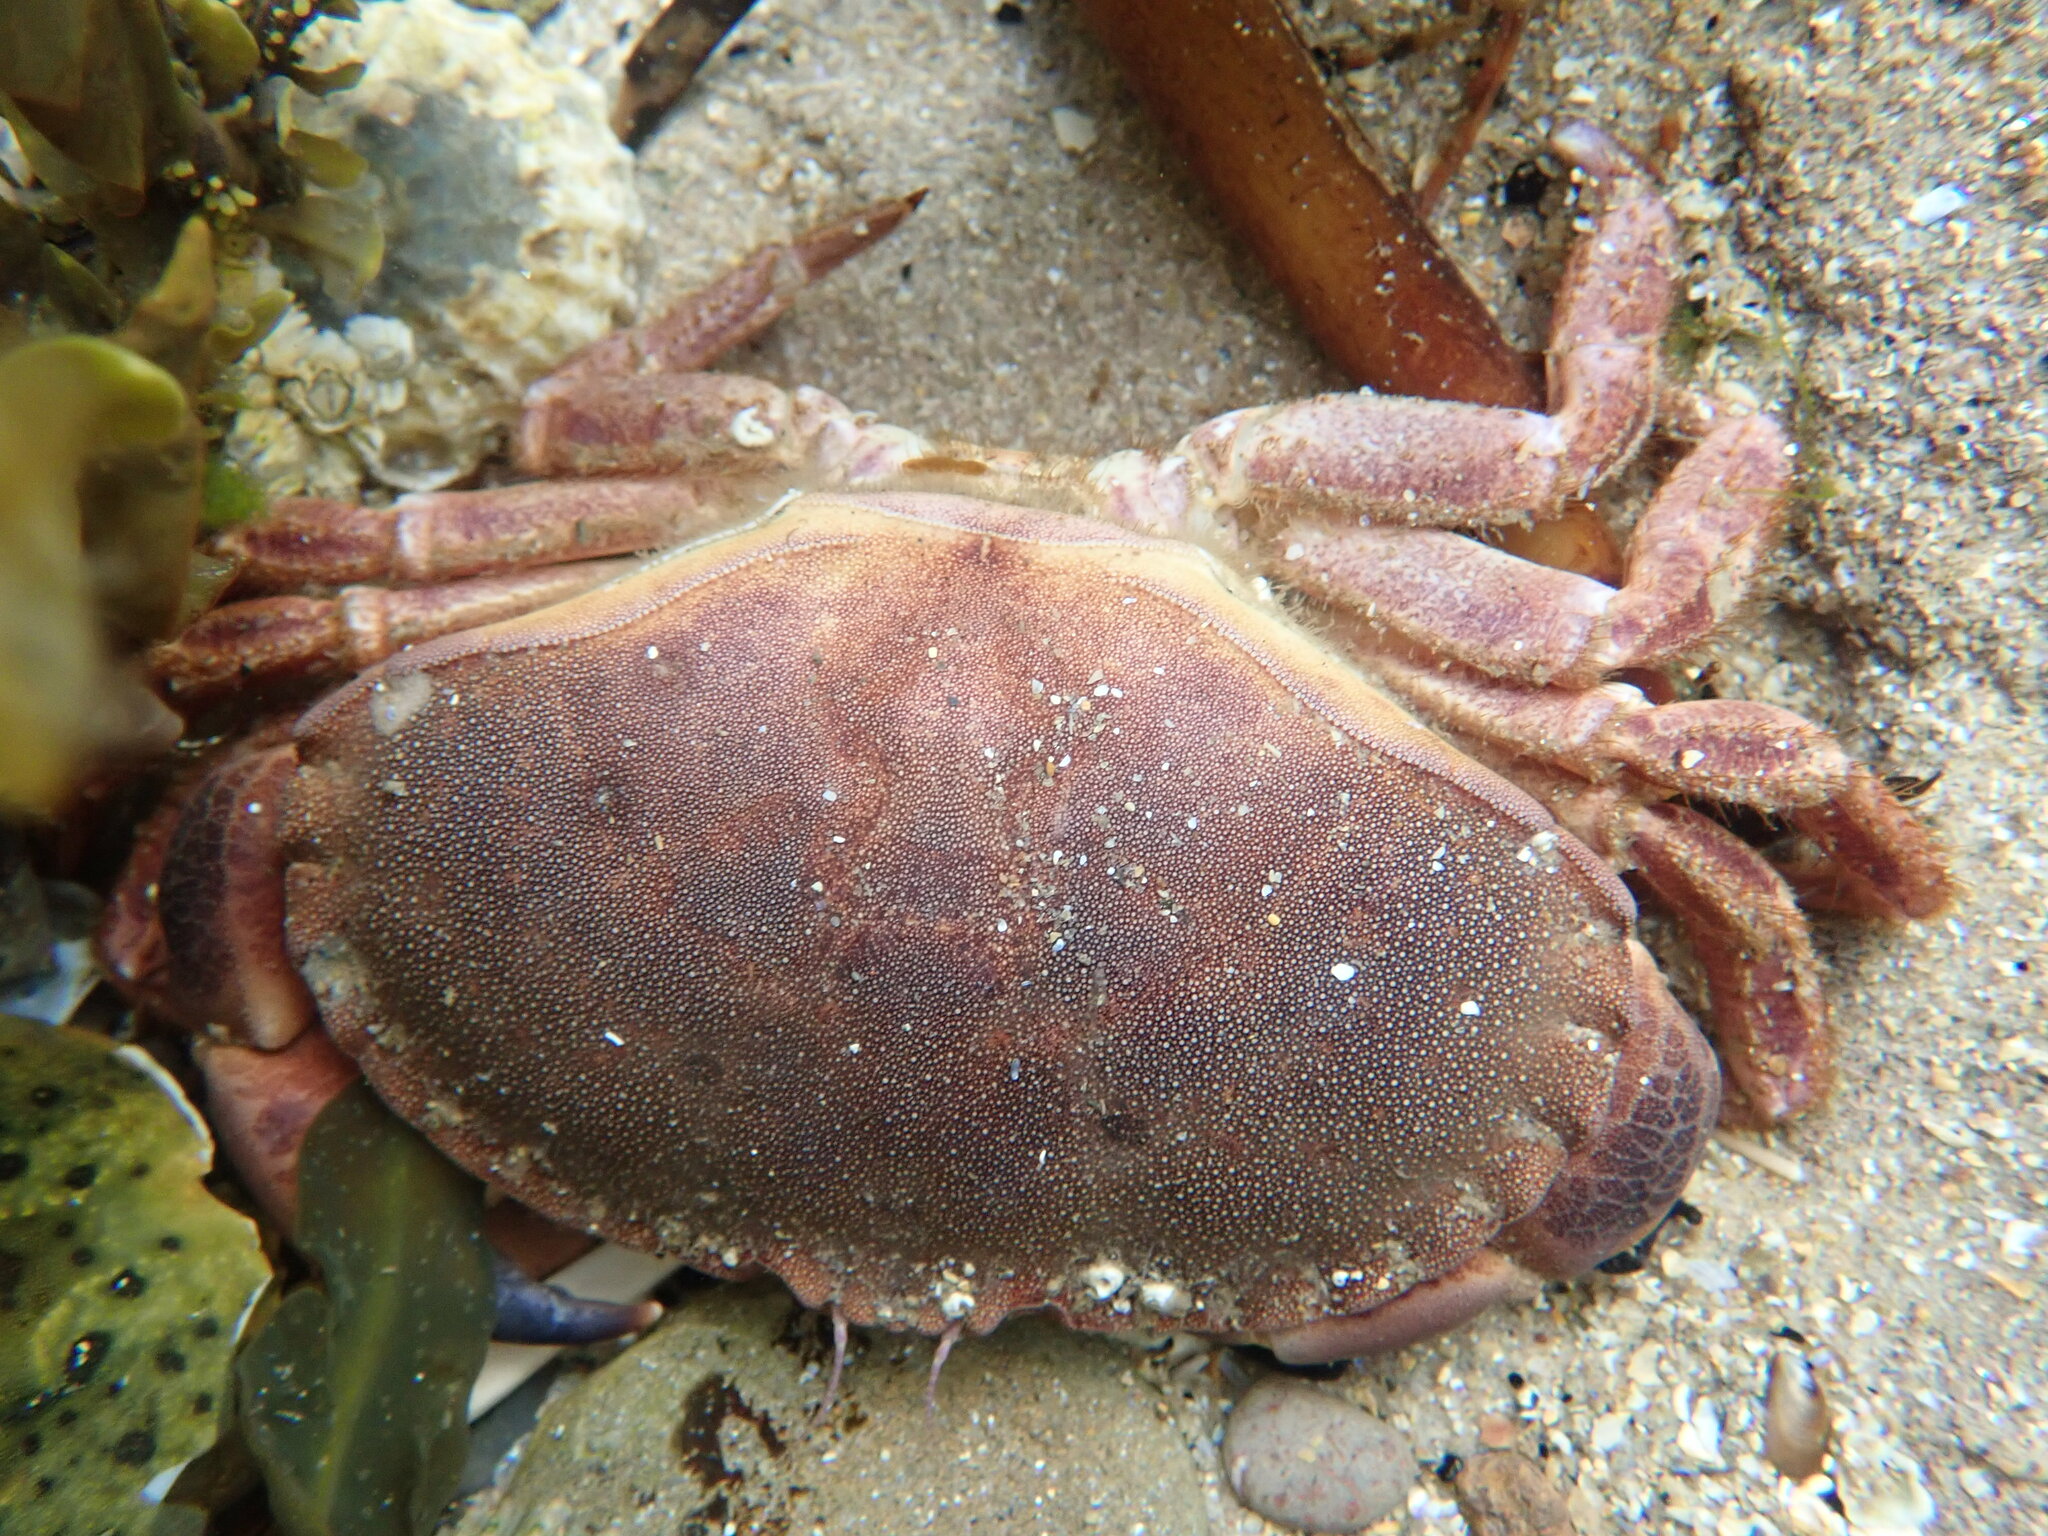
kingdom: Animalia
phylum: Arthropoda
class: Malacostraca
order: Decapoda
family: Cancridae
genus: Cancer
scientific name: Cancer pagurus
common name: Edible crab
